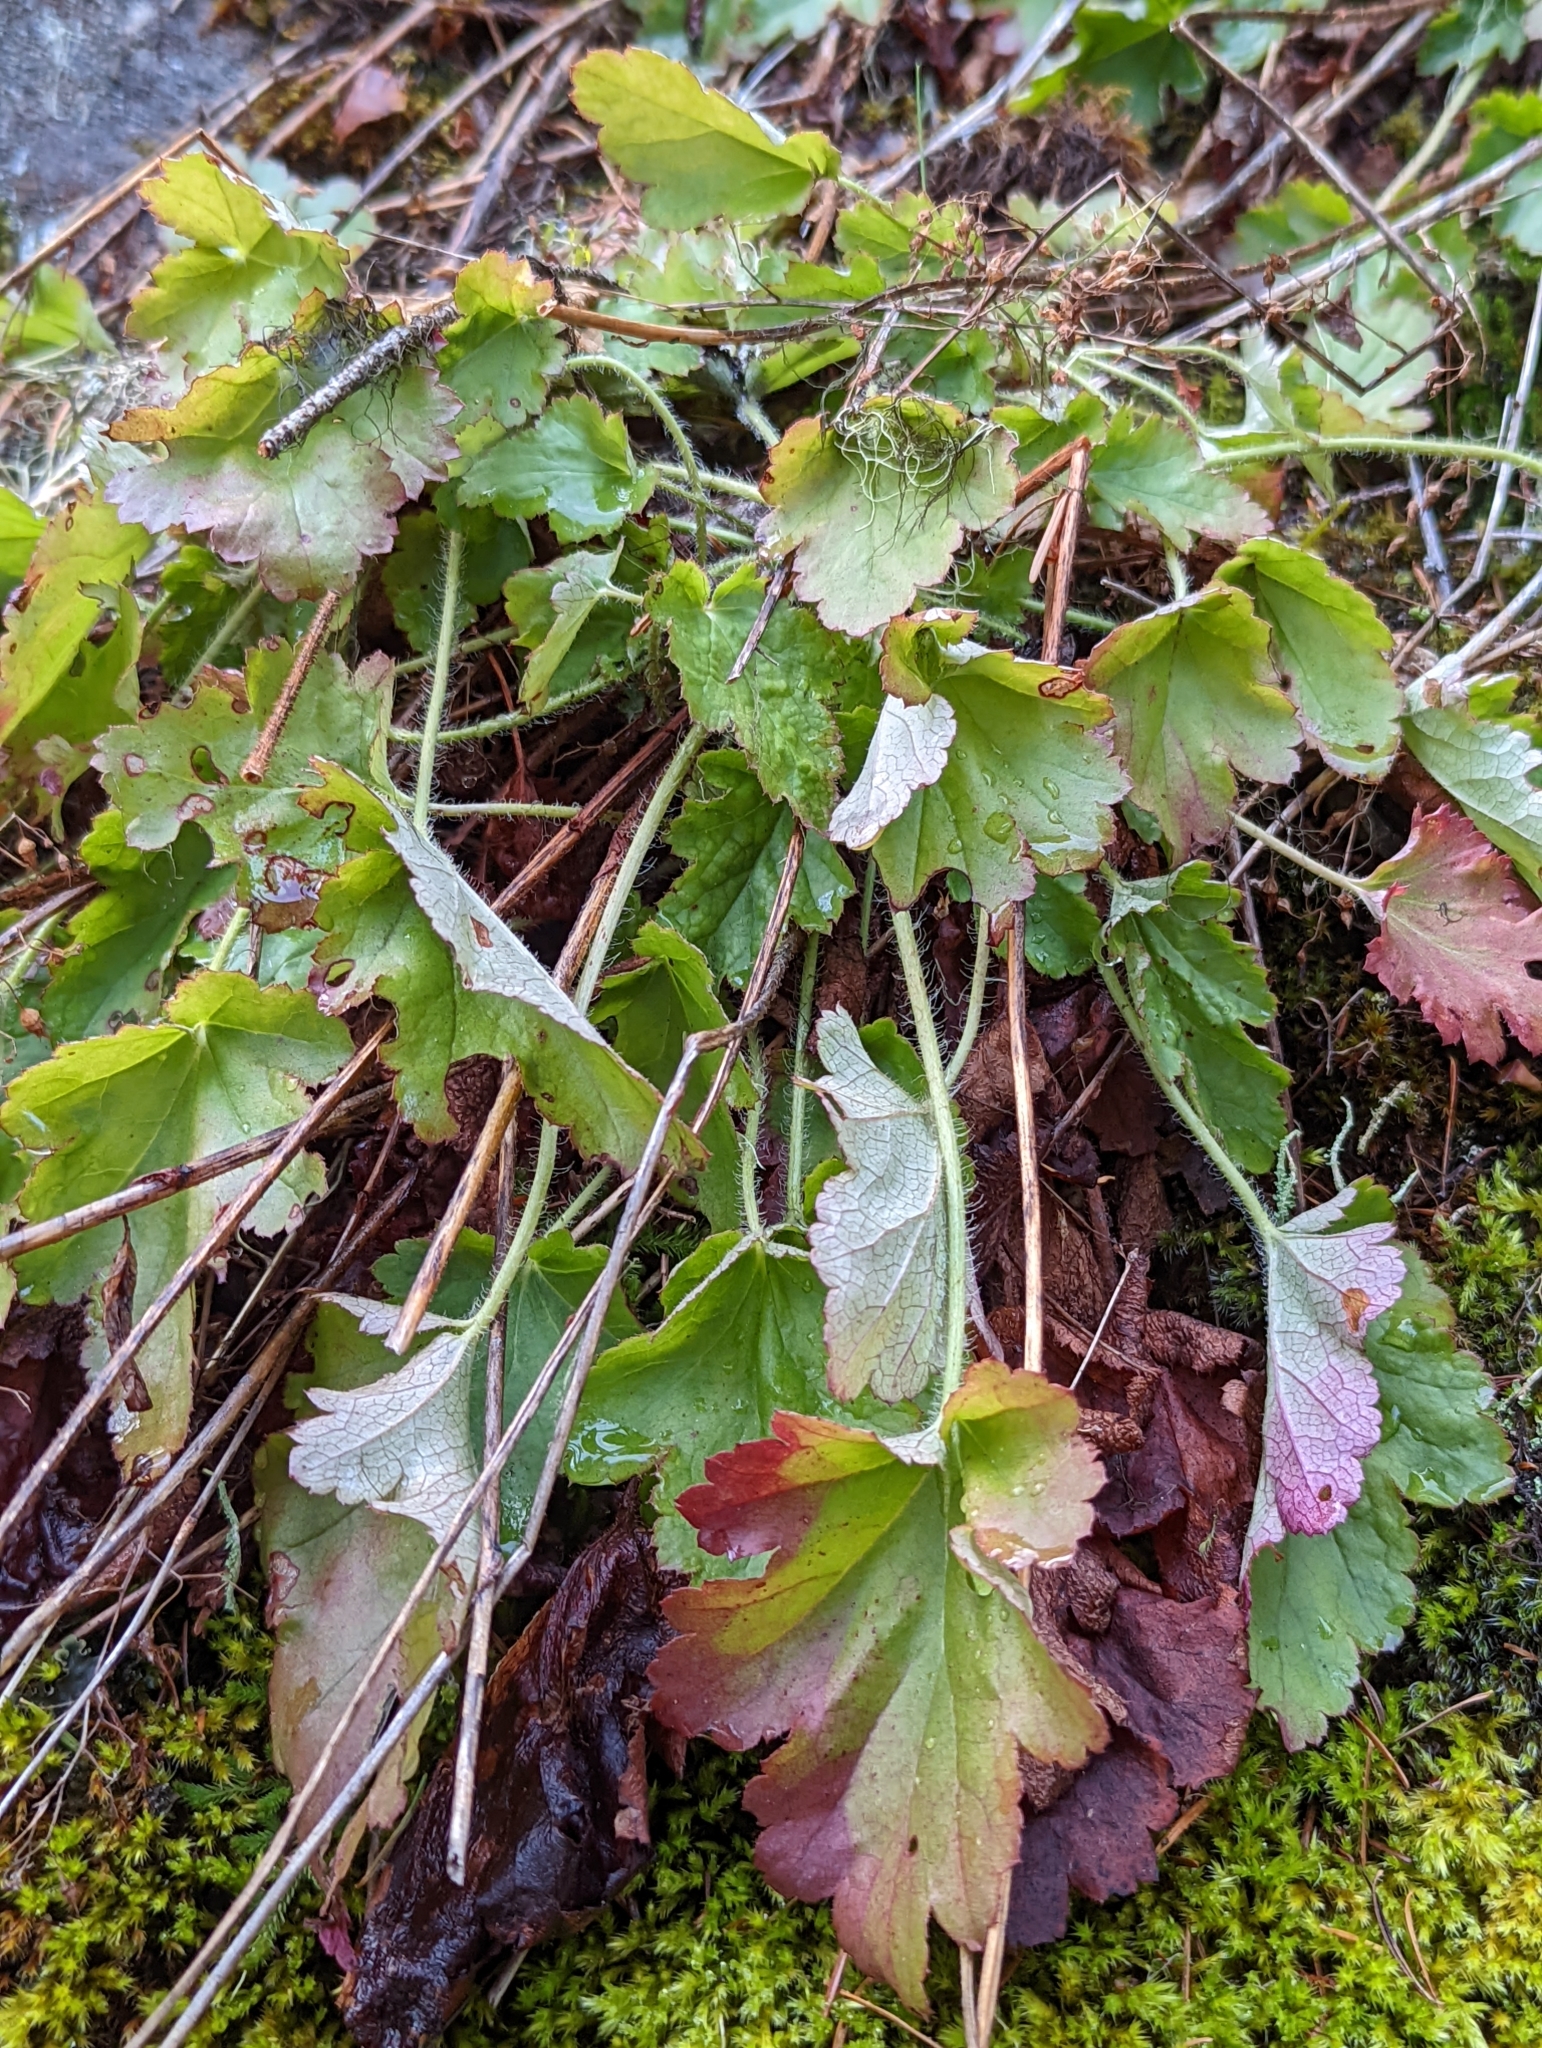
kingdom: Plantae
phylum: Tracheophyta
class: Magnoliopsida
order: Saxifragales
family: Saxifragaceae
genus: Heuchera
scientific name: Heuchera micrantha
